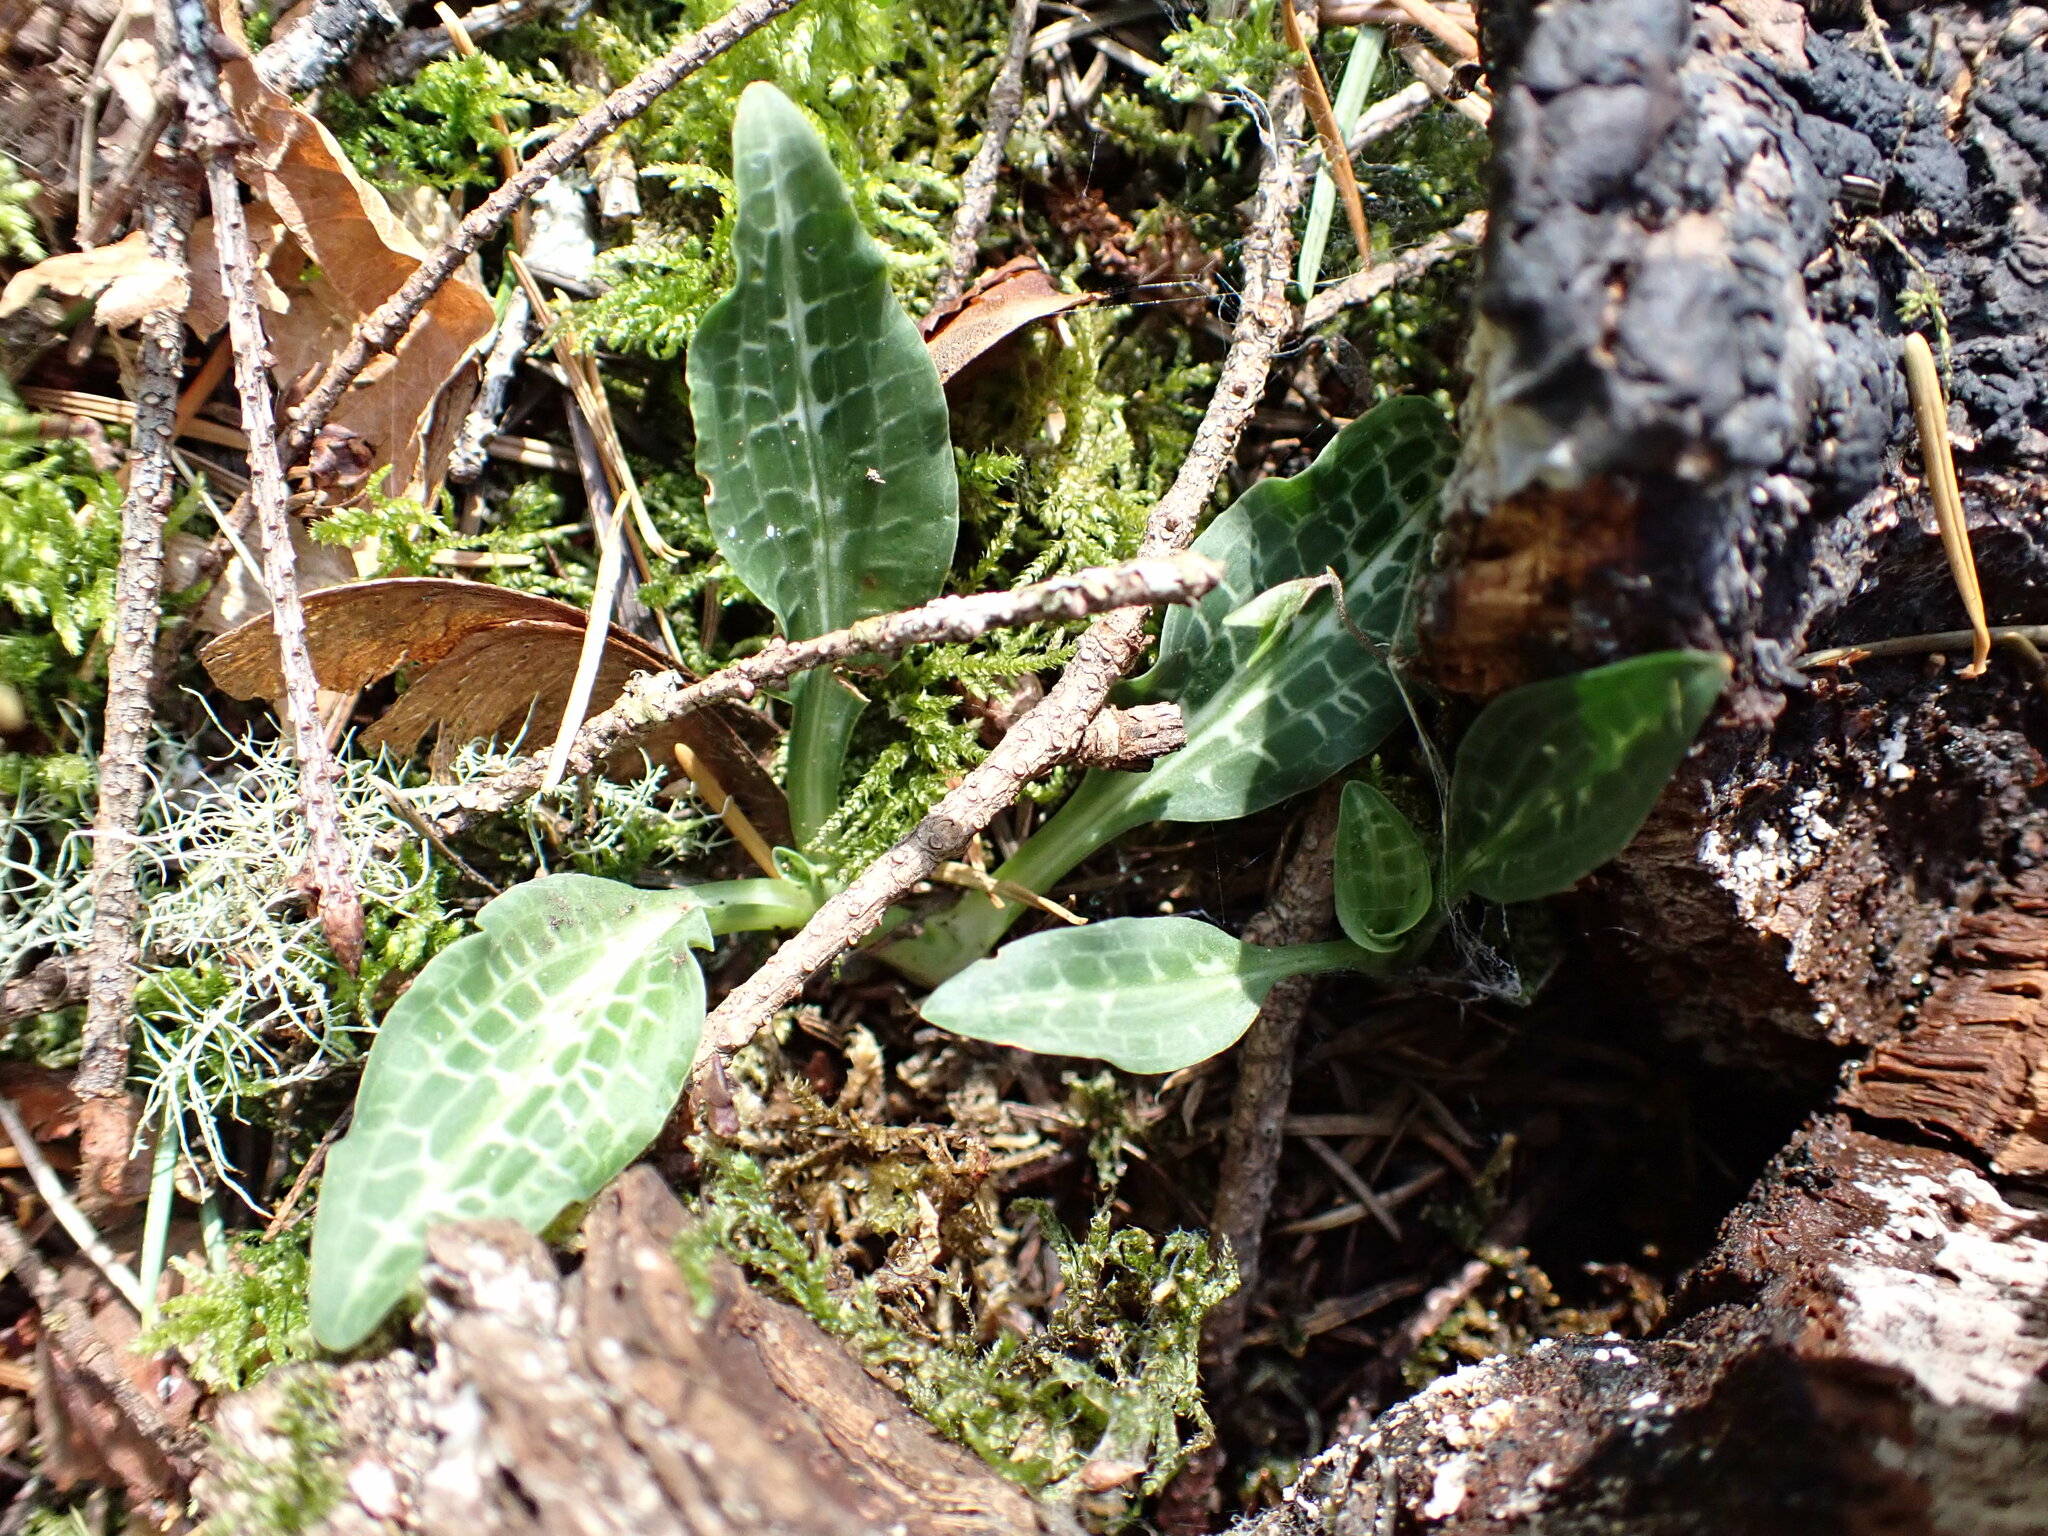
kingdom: Plantae
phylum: Tracheophyta
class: Liliopsida
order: Asparagales
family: Orchidaceae
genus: Goodyera
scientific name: Goodyera oblongifolia
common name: Giant rattlesnake-plantain
